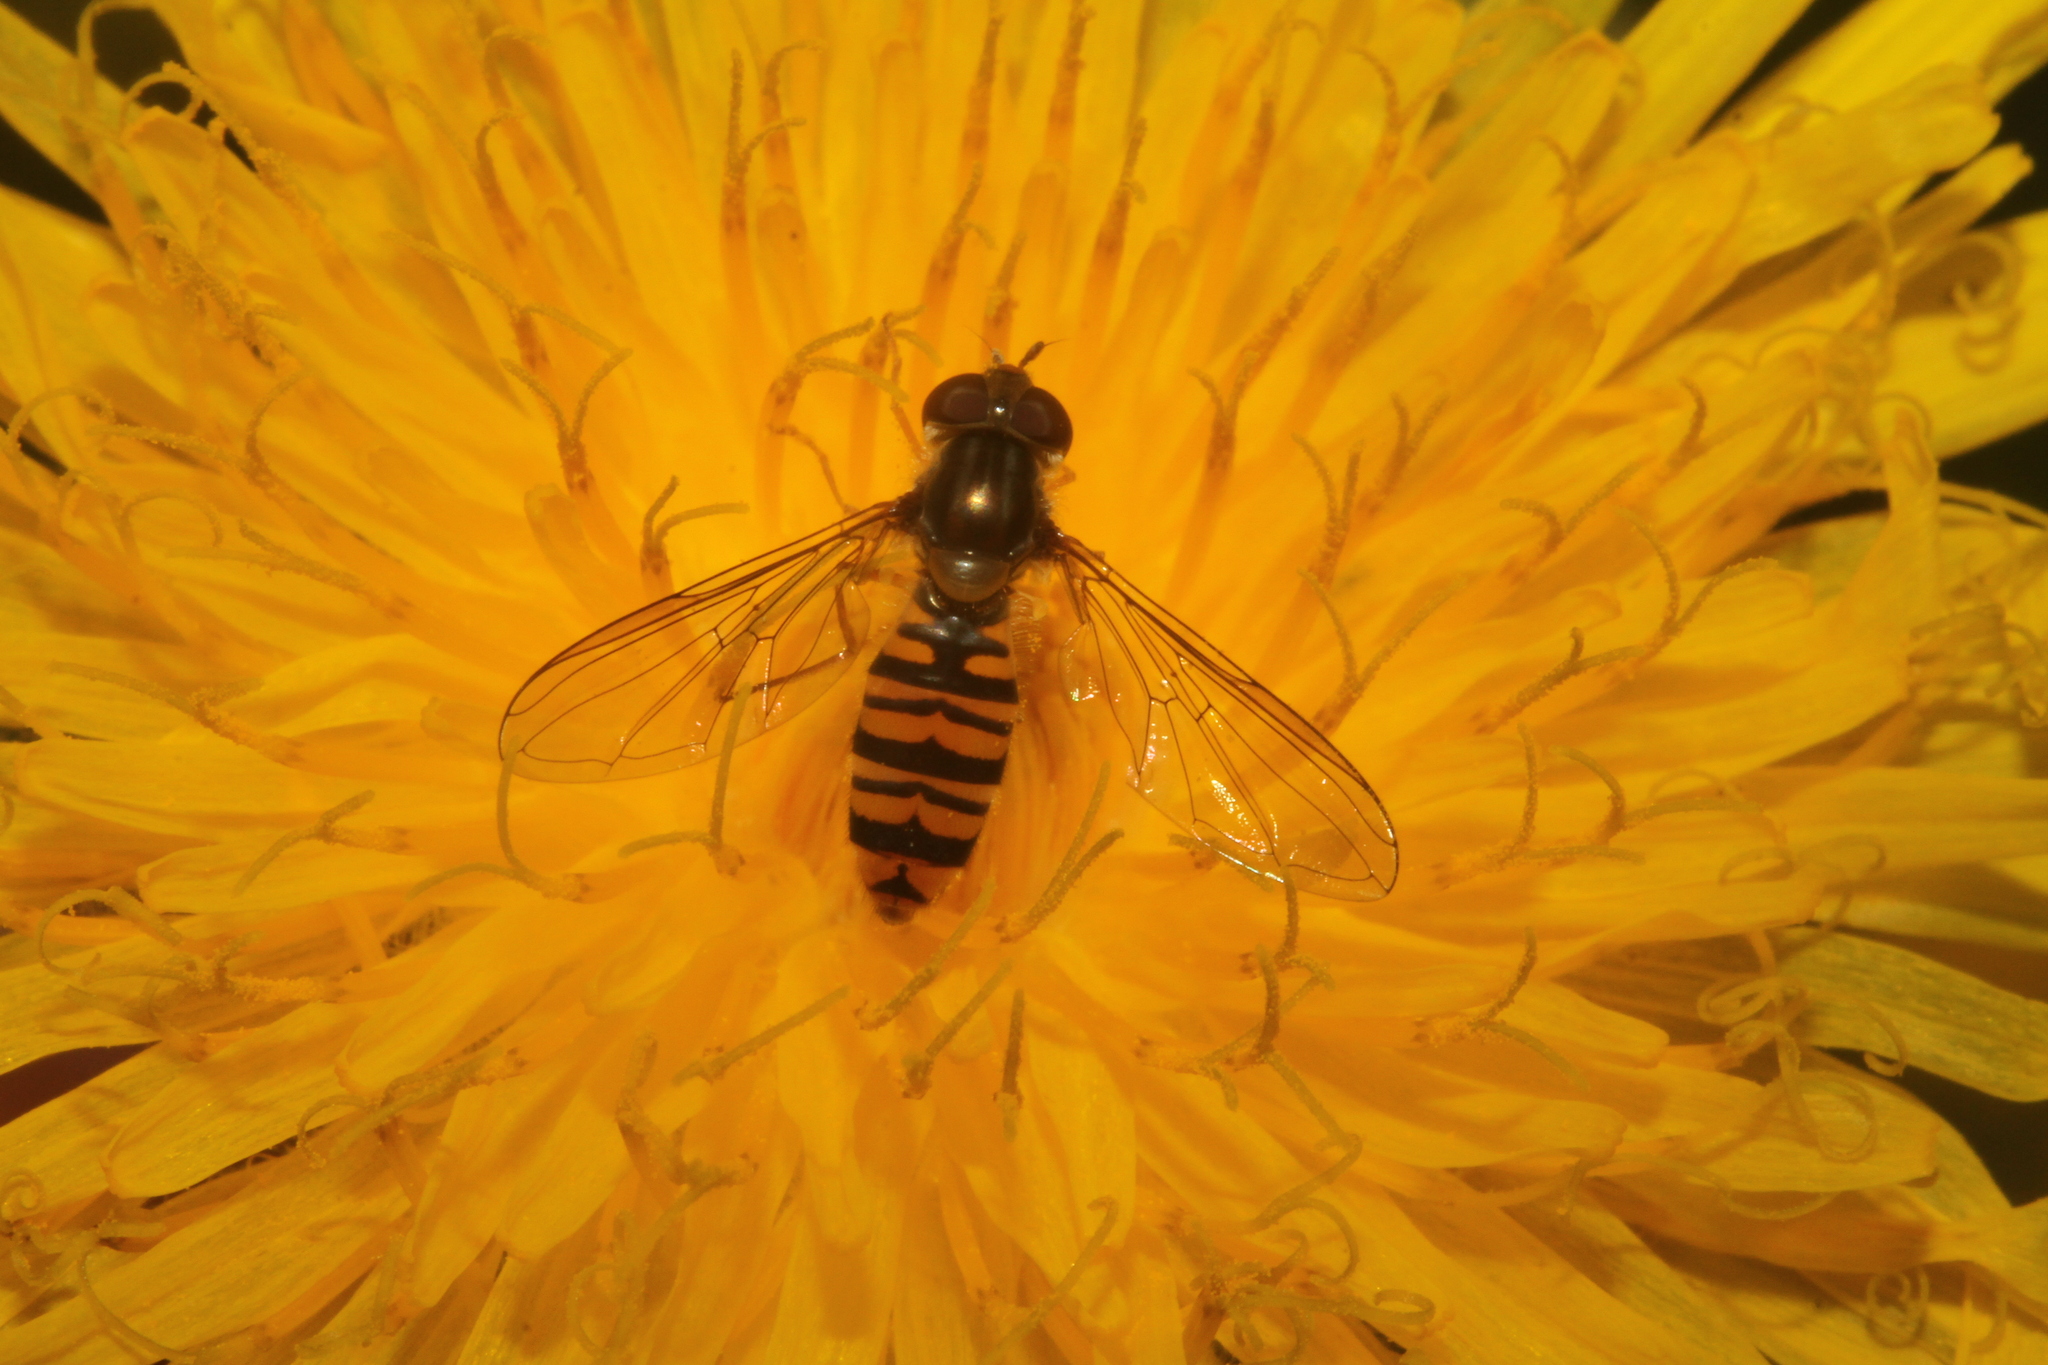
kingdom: Animalia
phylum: Arthropoda
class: Insecta
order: Diptera
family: Syrphidae
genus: Episyrphus
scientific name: Episyrphus balteatus
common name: Marmalade hoverfly
